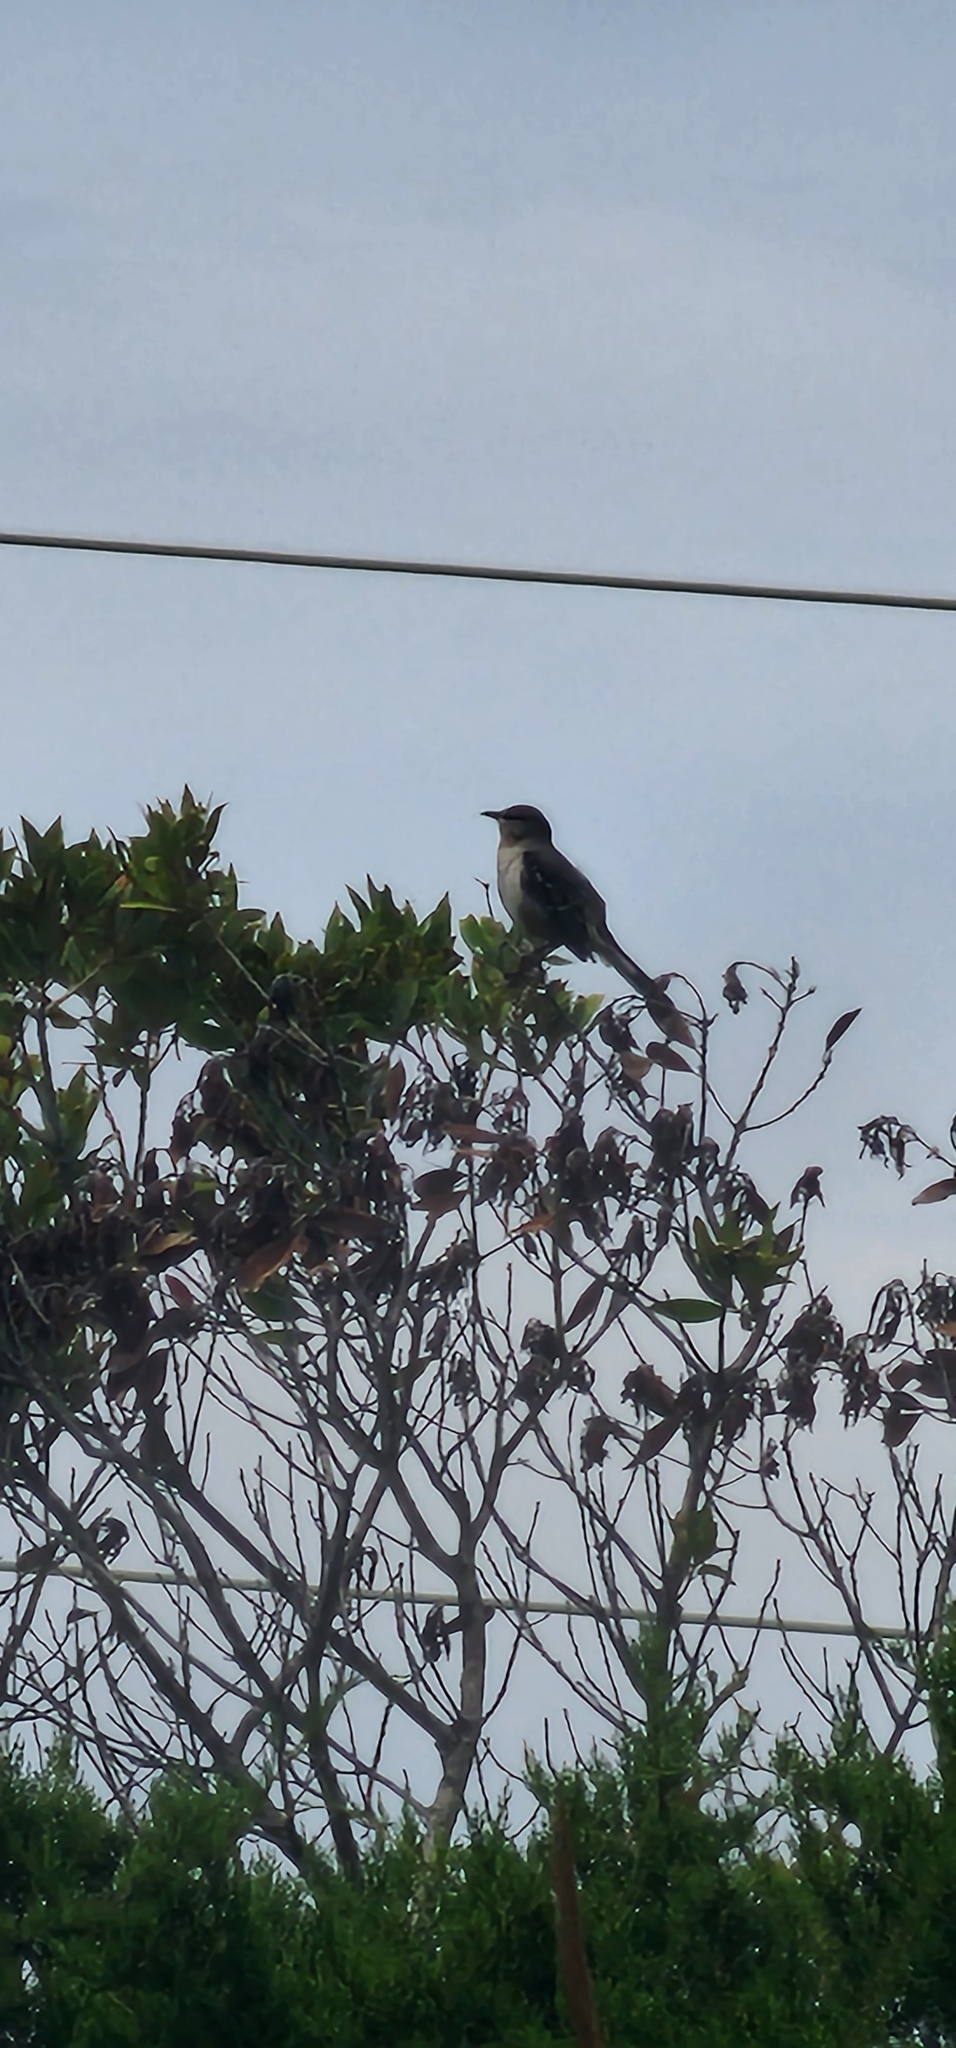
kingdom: Animalia
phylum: Chordata
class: Aves
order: Passeriformes
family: Mimidae
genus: Mimus
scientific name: Mimus polyglottos
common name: Northern mockingbird
